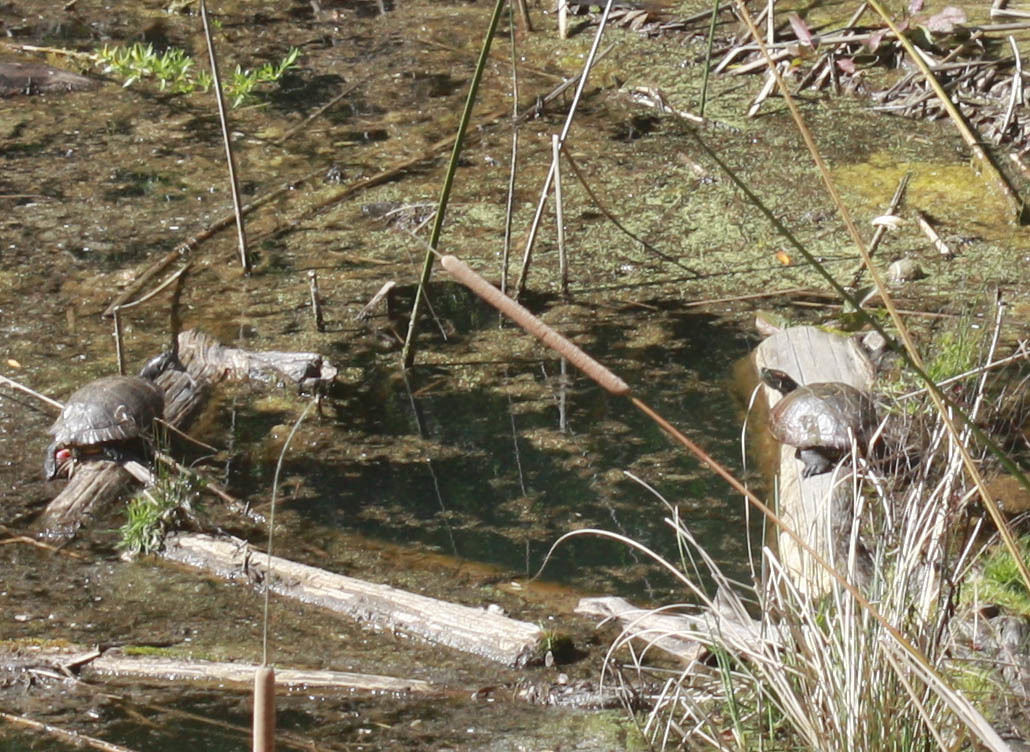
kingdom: Animalia
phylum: Chordata
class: Testudines
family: Emydidae
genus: Trachemys
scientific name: Trachemys scripta
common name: Slider
